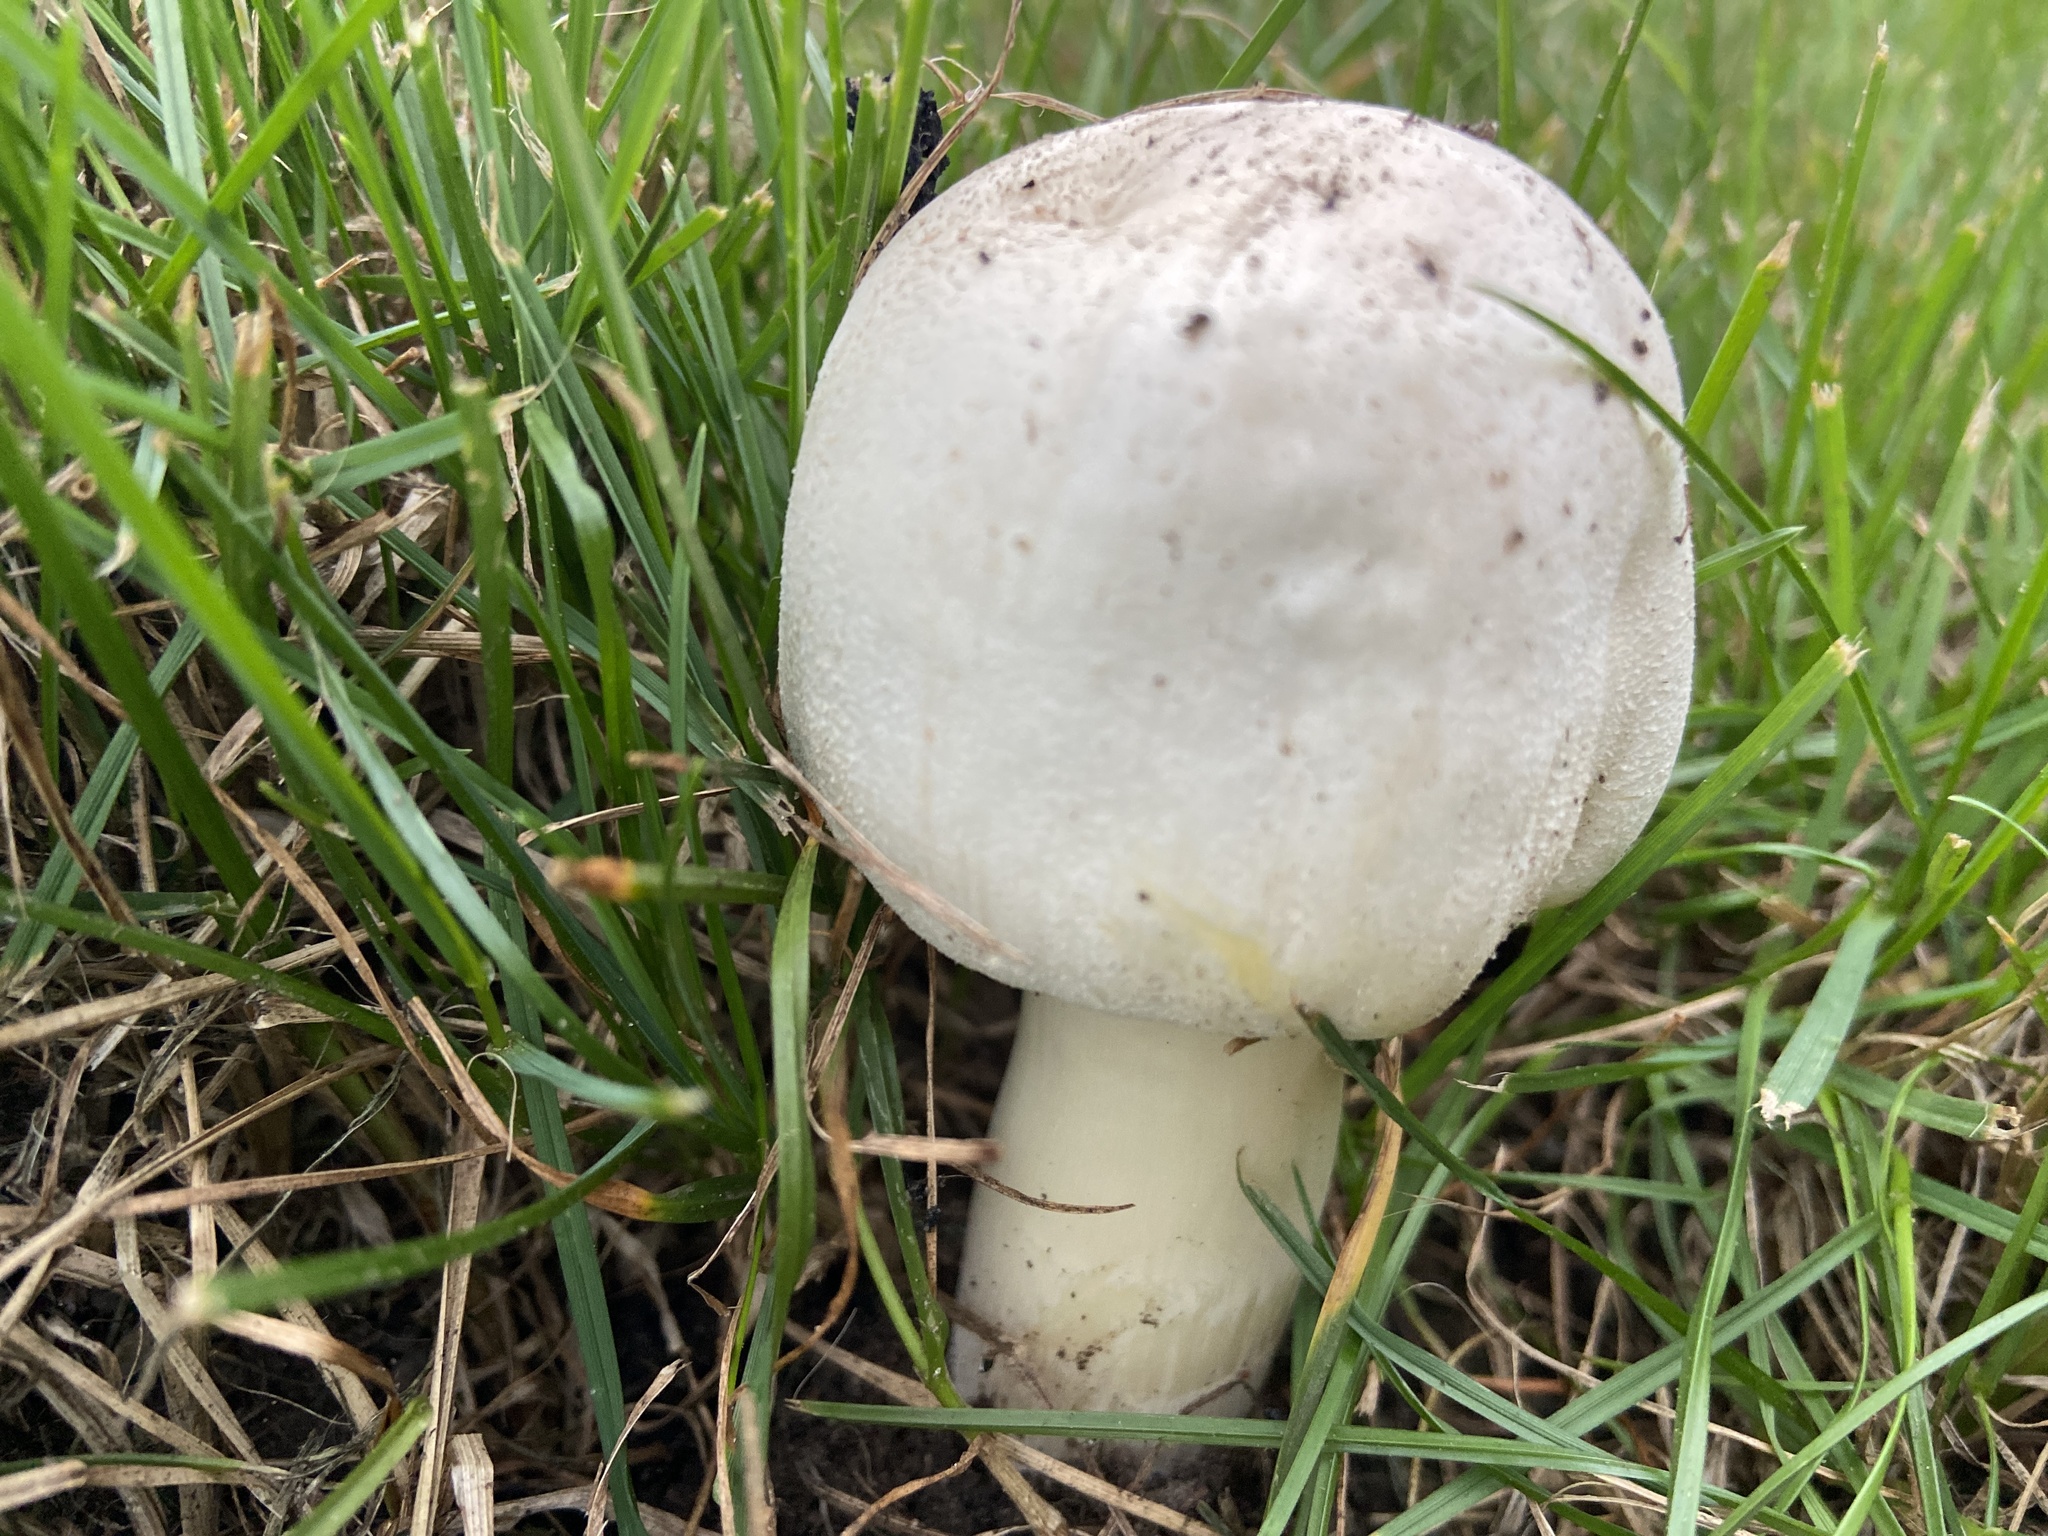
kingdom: Fungi
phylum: Basidiomycota
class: Agaricomycetes
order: Agaricales
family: Agaricaceae
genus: Agaricus
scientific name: Agaricus xanthodermus
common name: Yellow stainer
